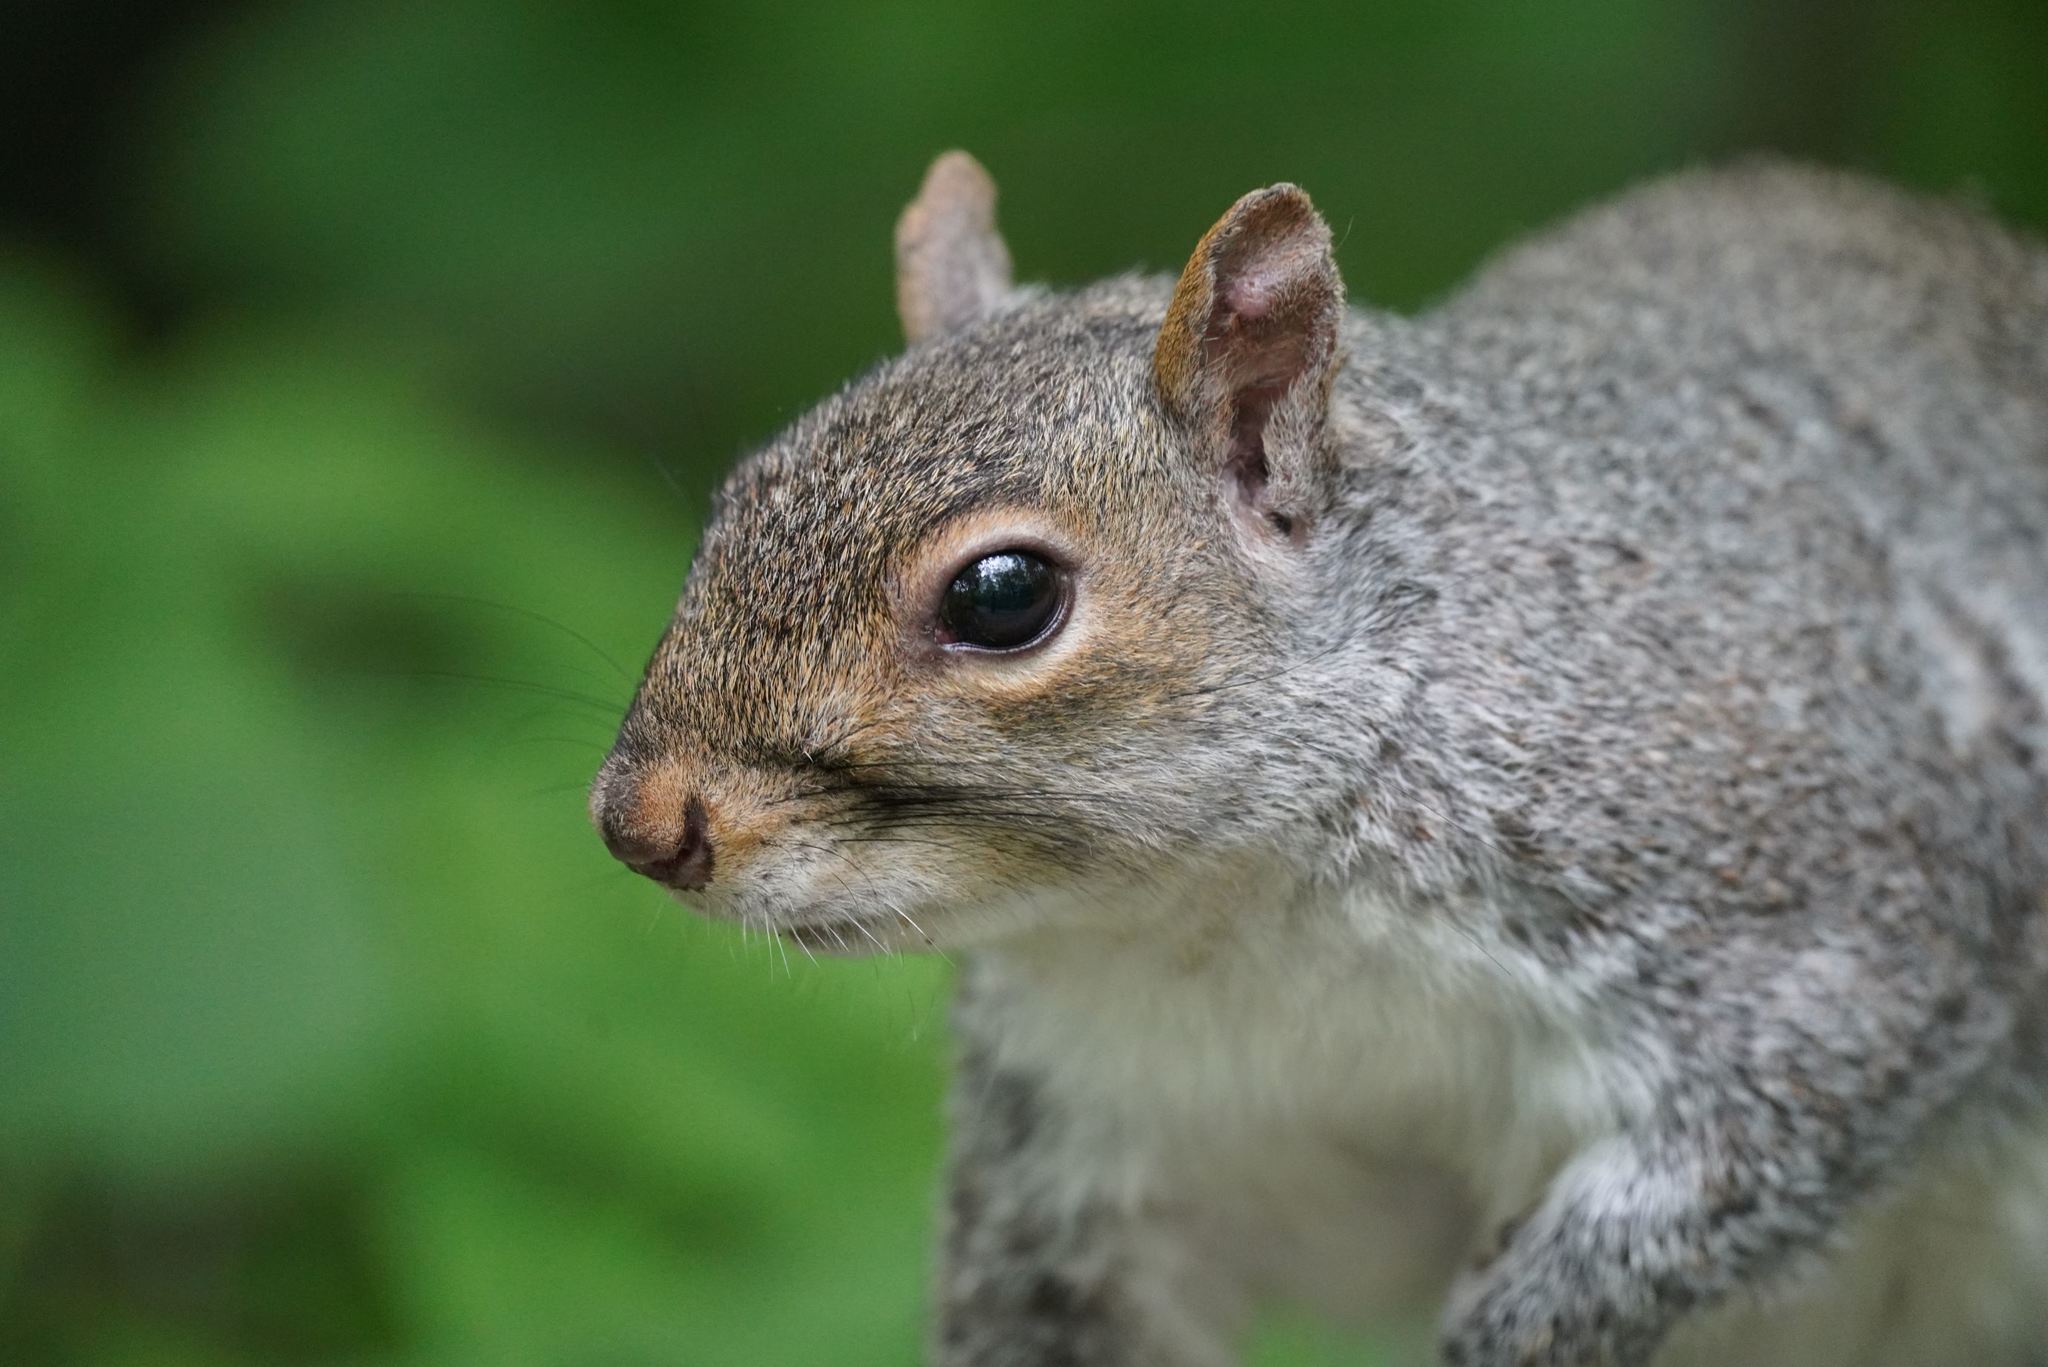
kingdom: Animalia
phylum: Chordata
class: Mammalia
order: Rodentia
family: Sciuridae
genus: Sciurus
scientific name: Sciurus carolinensis
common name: Eastern gray squirrel
